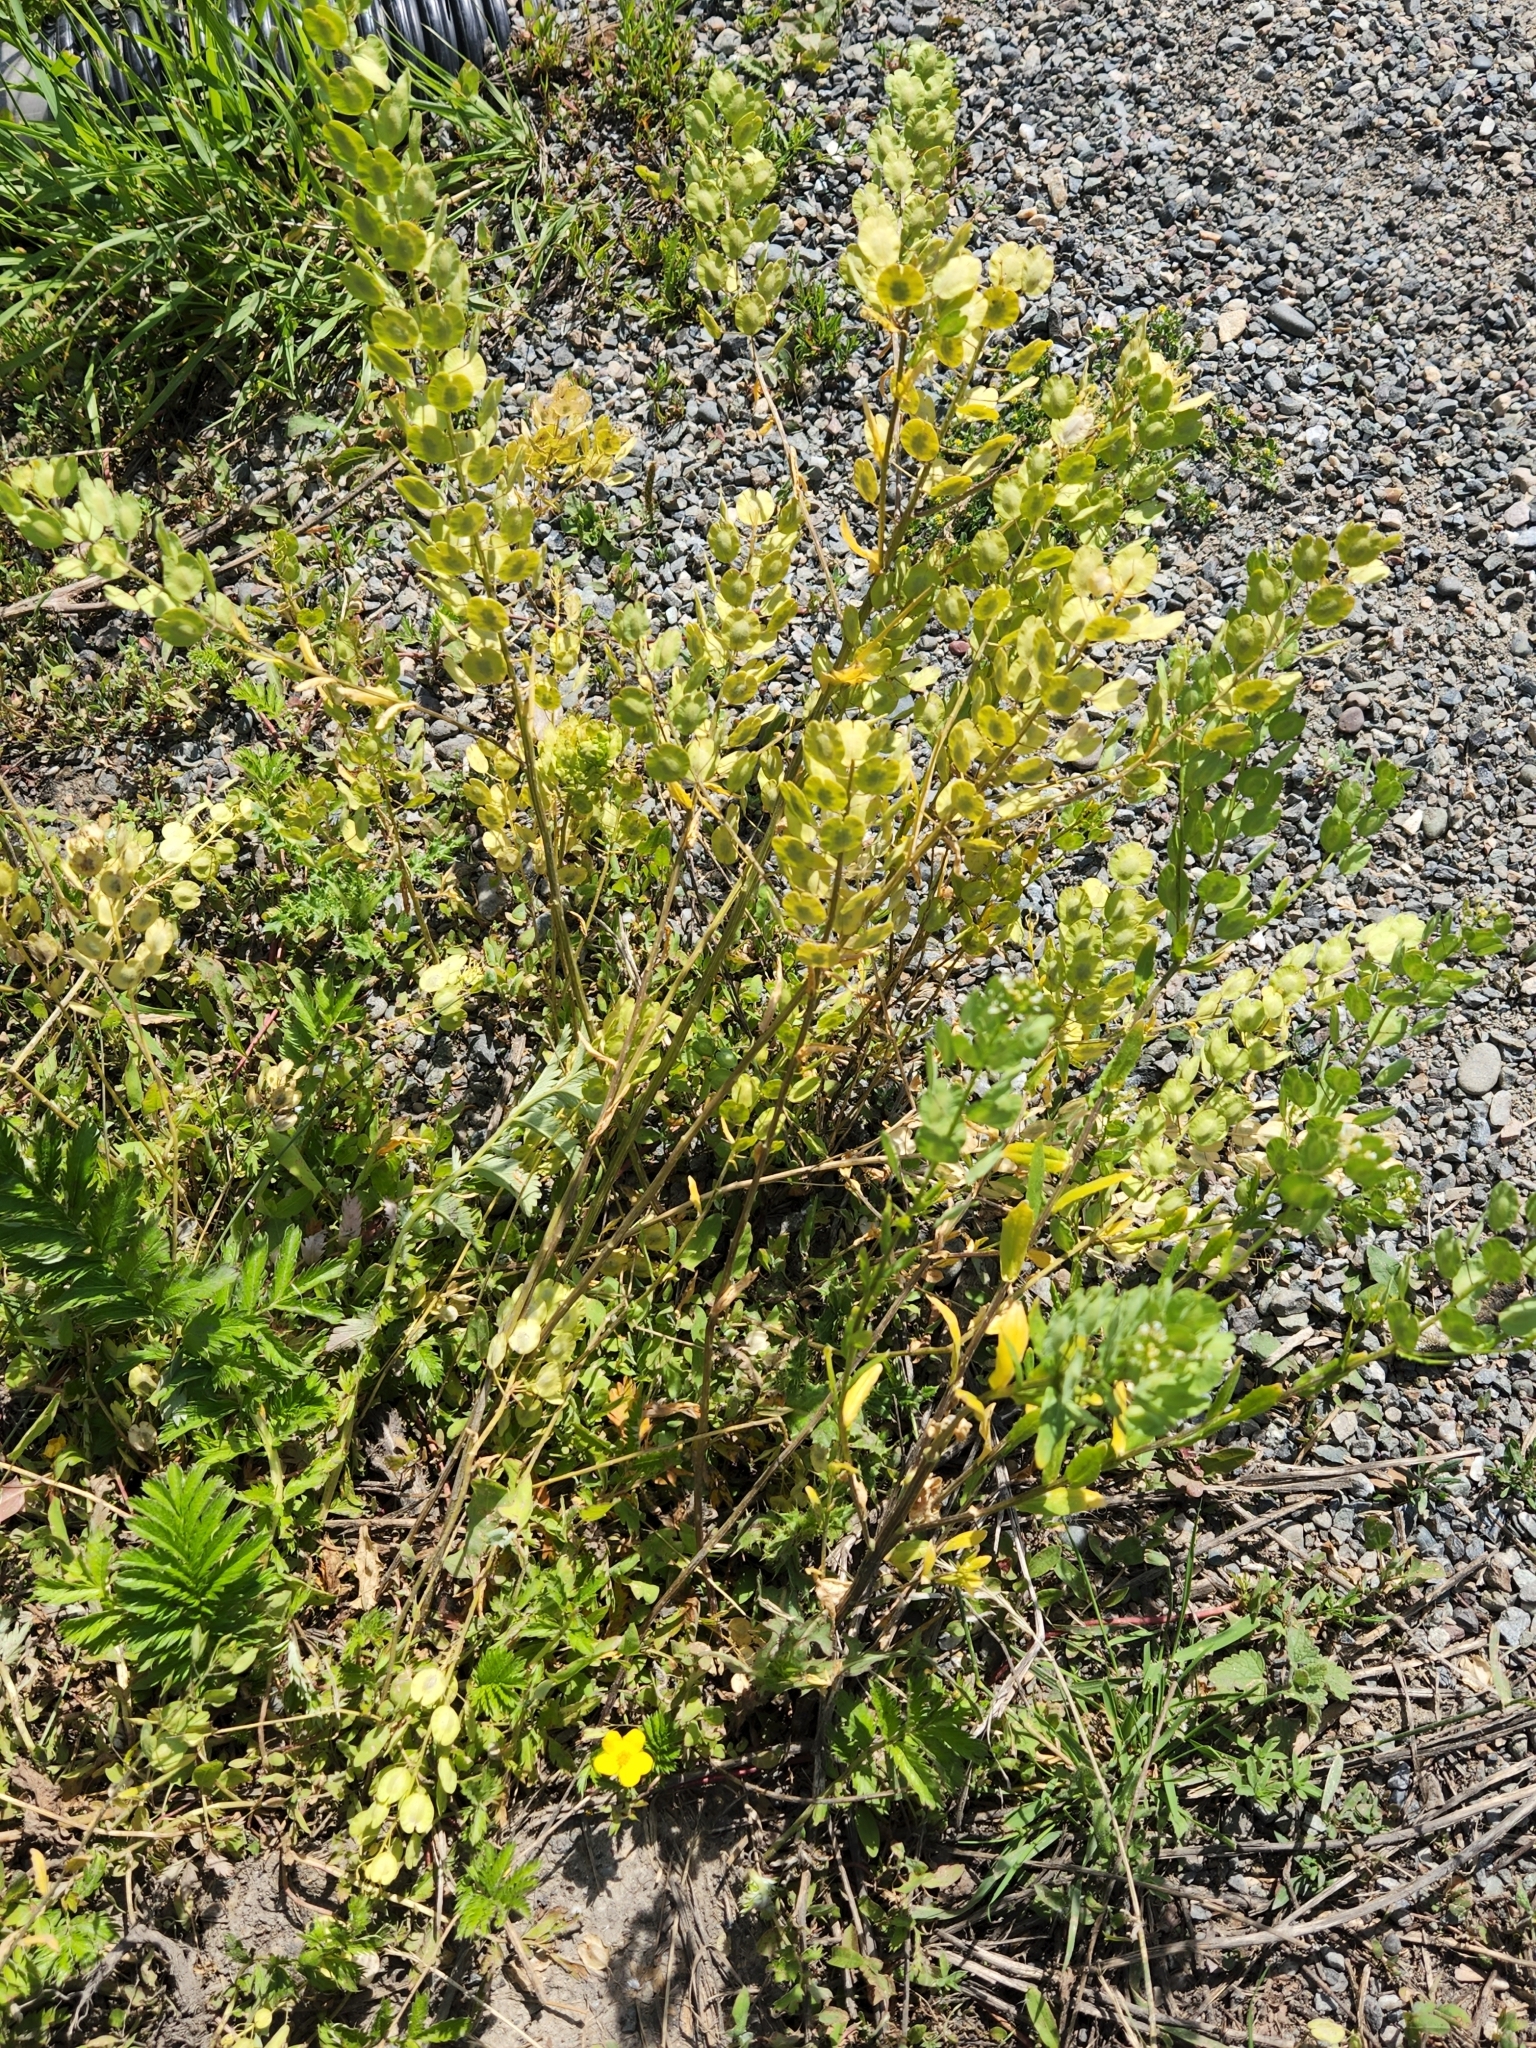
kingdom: Plantae
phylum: Tracheophyta
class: Magnoliopsida
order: Brassicales
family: Brassicaceae
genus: Thlaspi
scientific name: Thlaspi arvense
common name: Field pennycress
